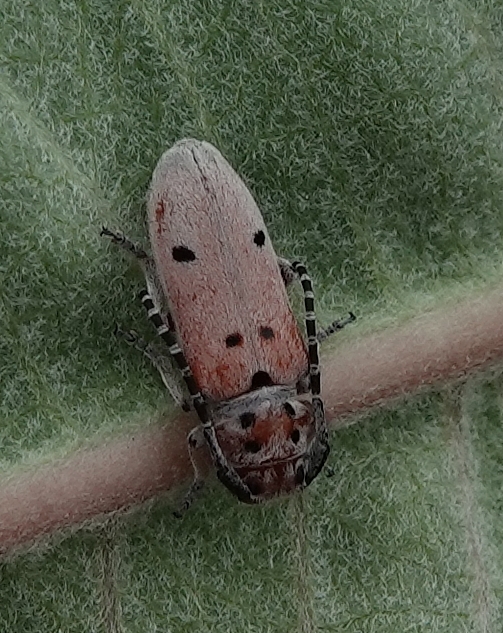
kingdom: Animalia
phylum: Arthropoda
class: Insecta
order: Coleoptera
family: Cerambycidae
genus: Tetraopes
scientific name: Tetraopes annulatus
